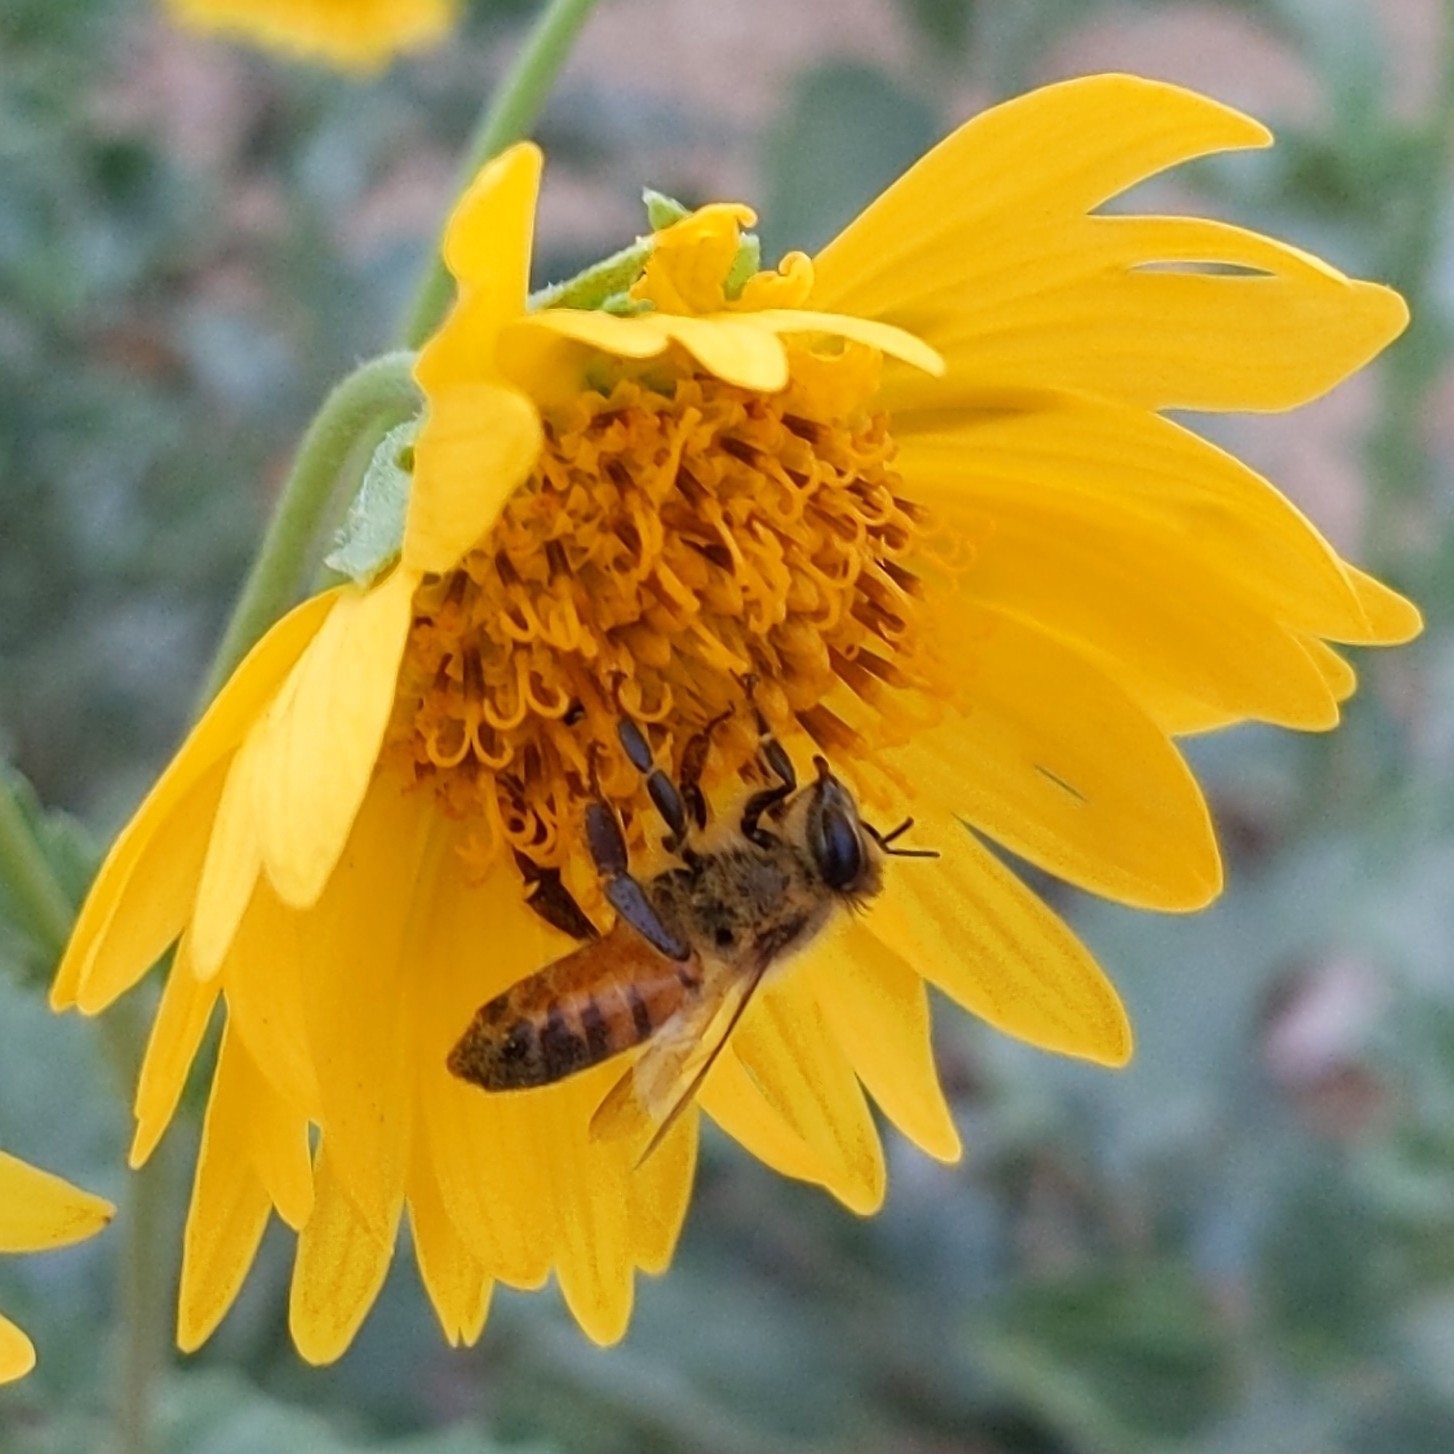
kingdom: Plantae
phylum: Tracheophyta
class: Magnoliopsida
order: Asterales
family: Asteraceae
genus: Verbesina
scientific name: Verbesina encelioides
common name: Golden crownbeard
